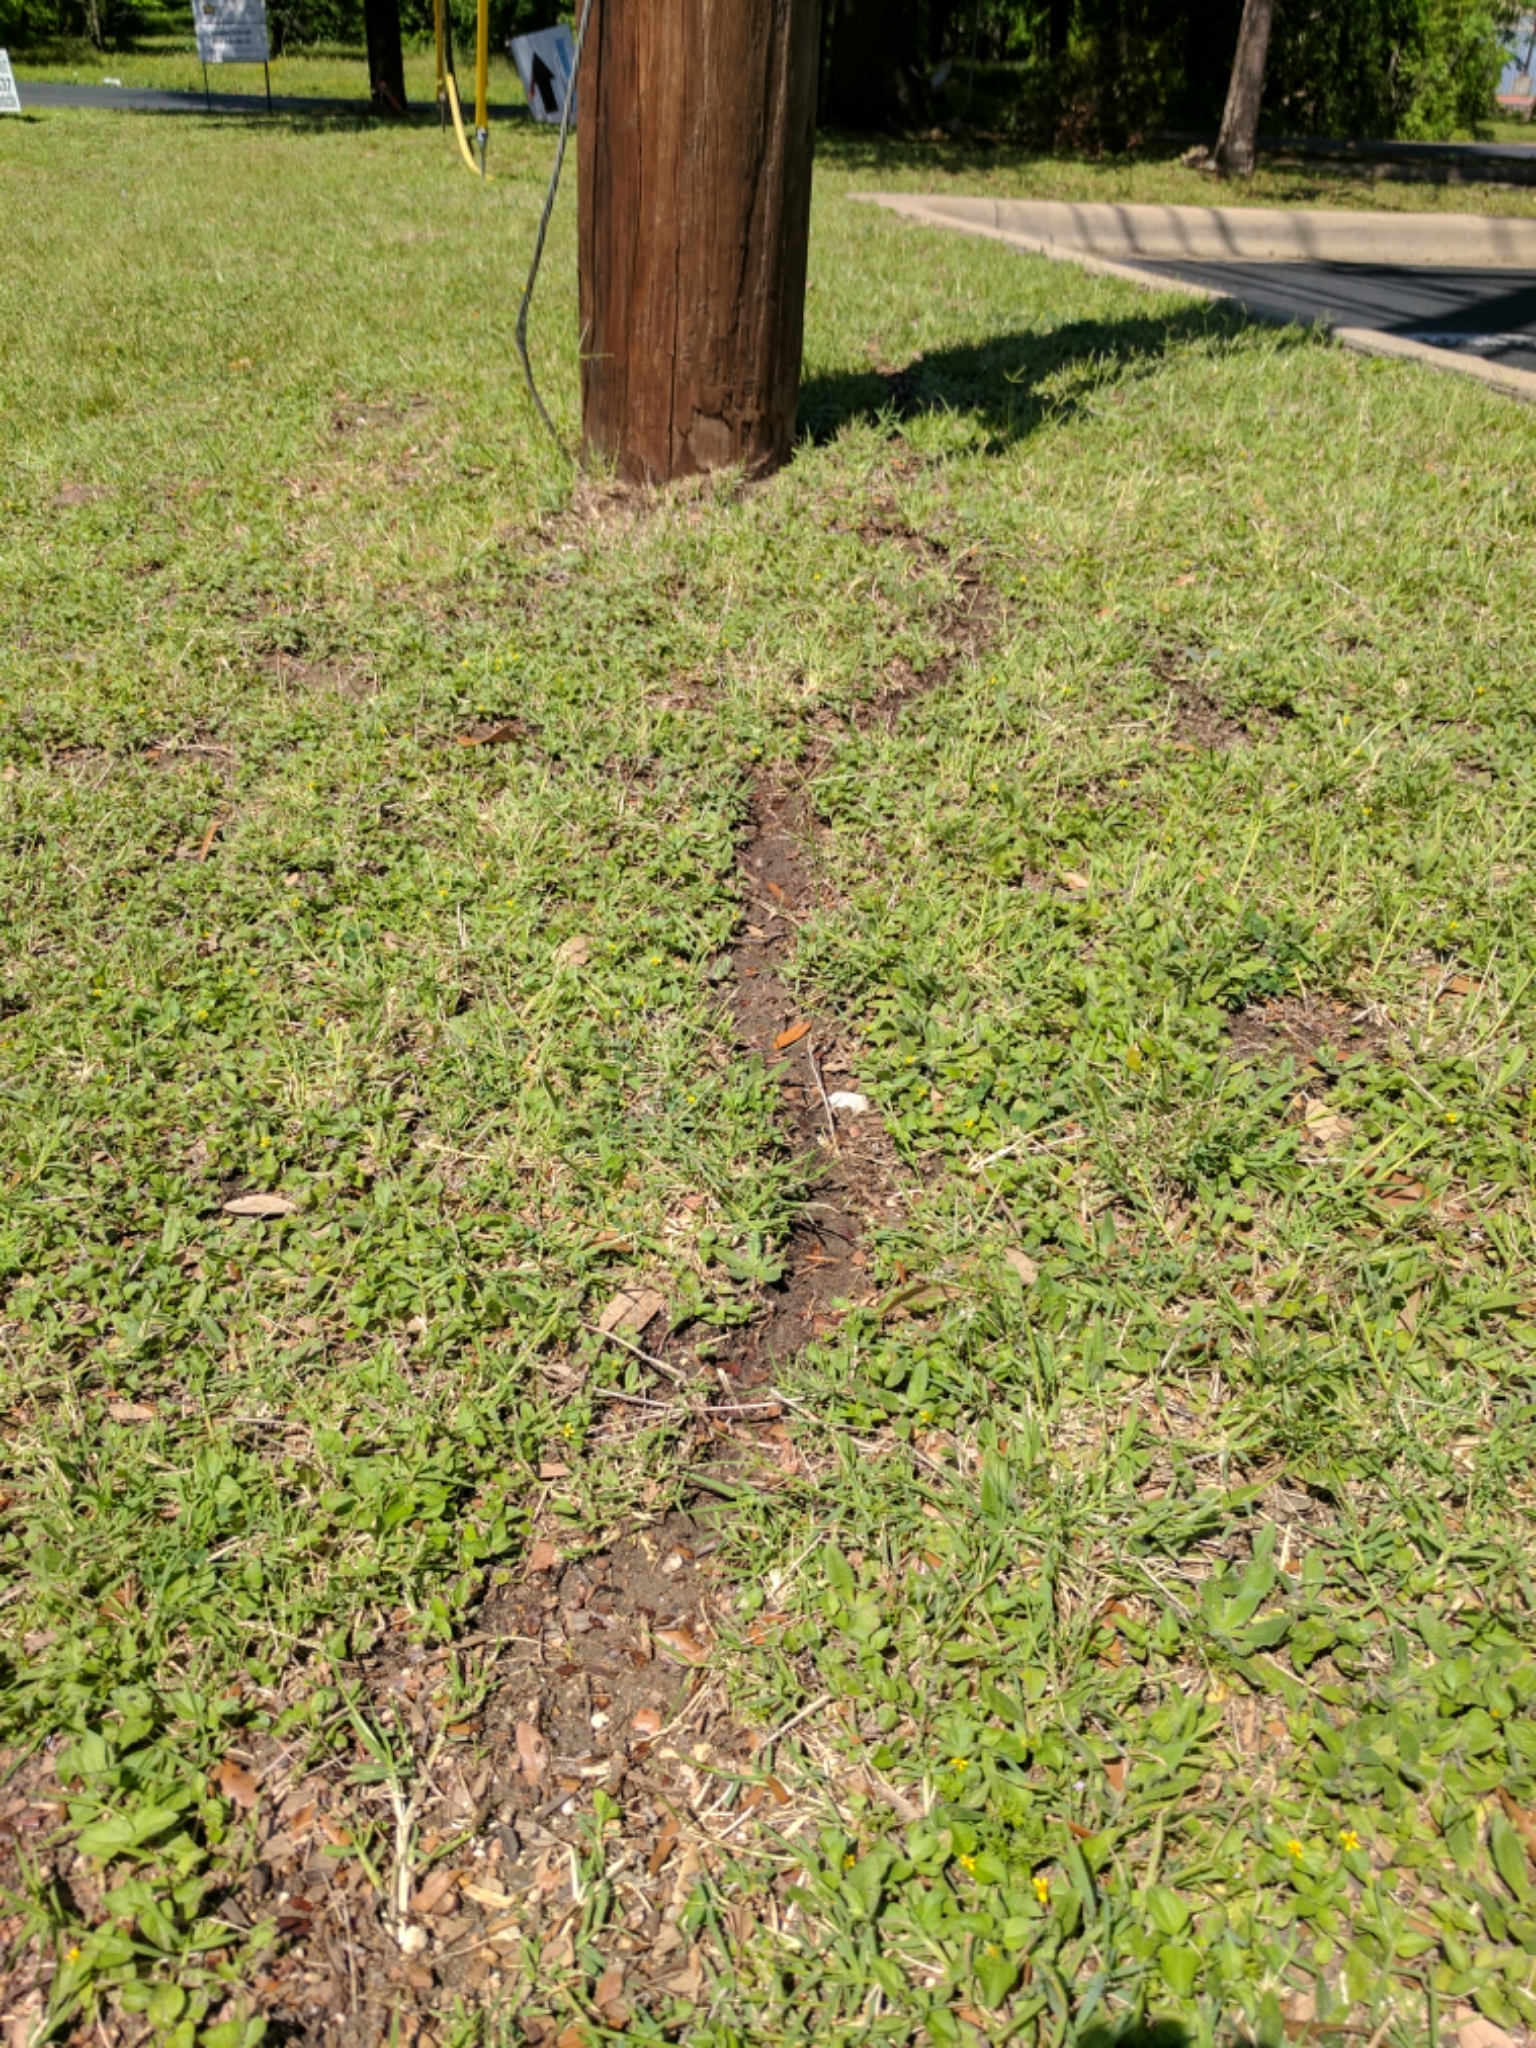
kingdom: Animalia
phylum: Arthropoda
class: Insecta
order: Hymenoptera
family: Formicidae
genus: Atta
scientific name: Atta texana
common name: Texas leafcutting ant
